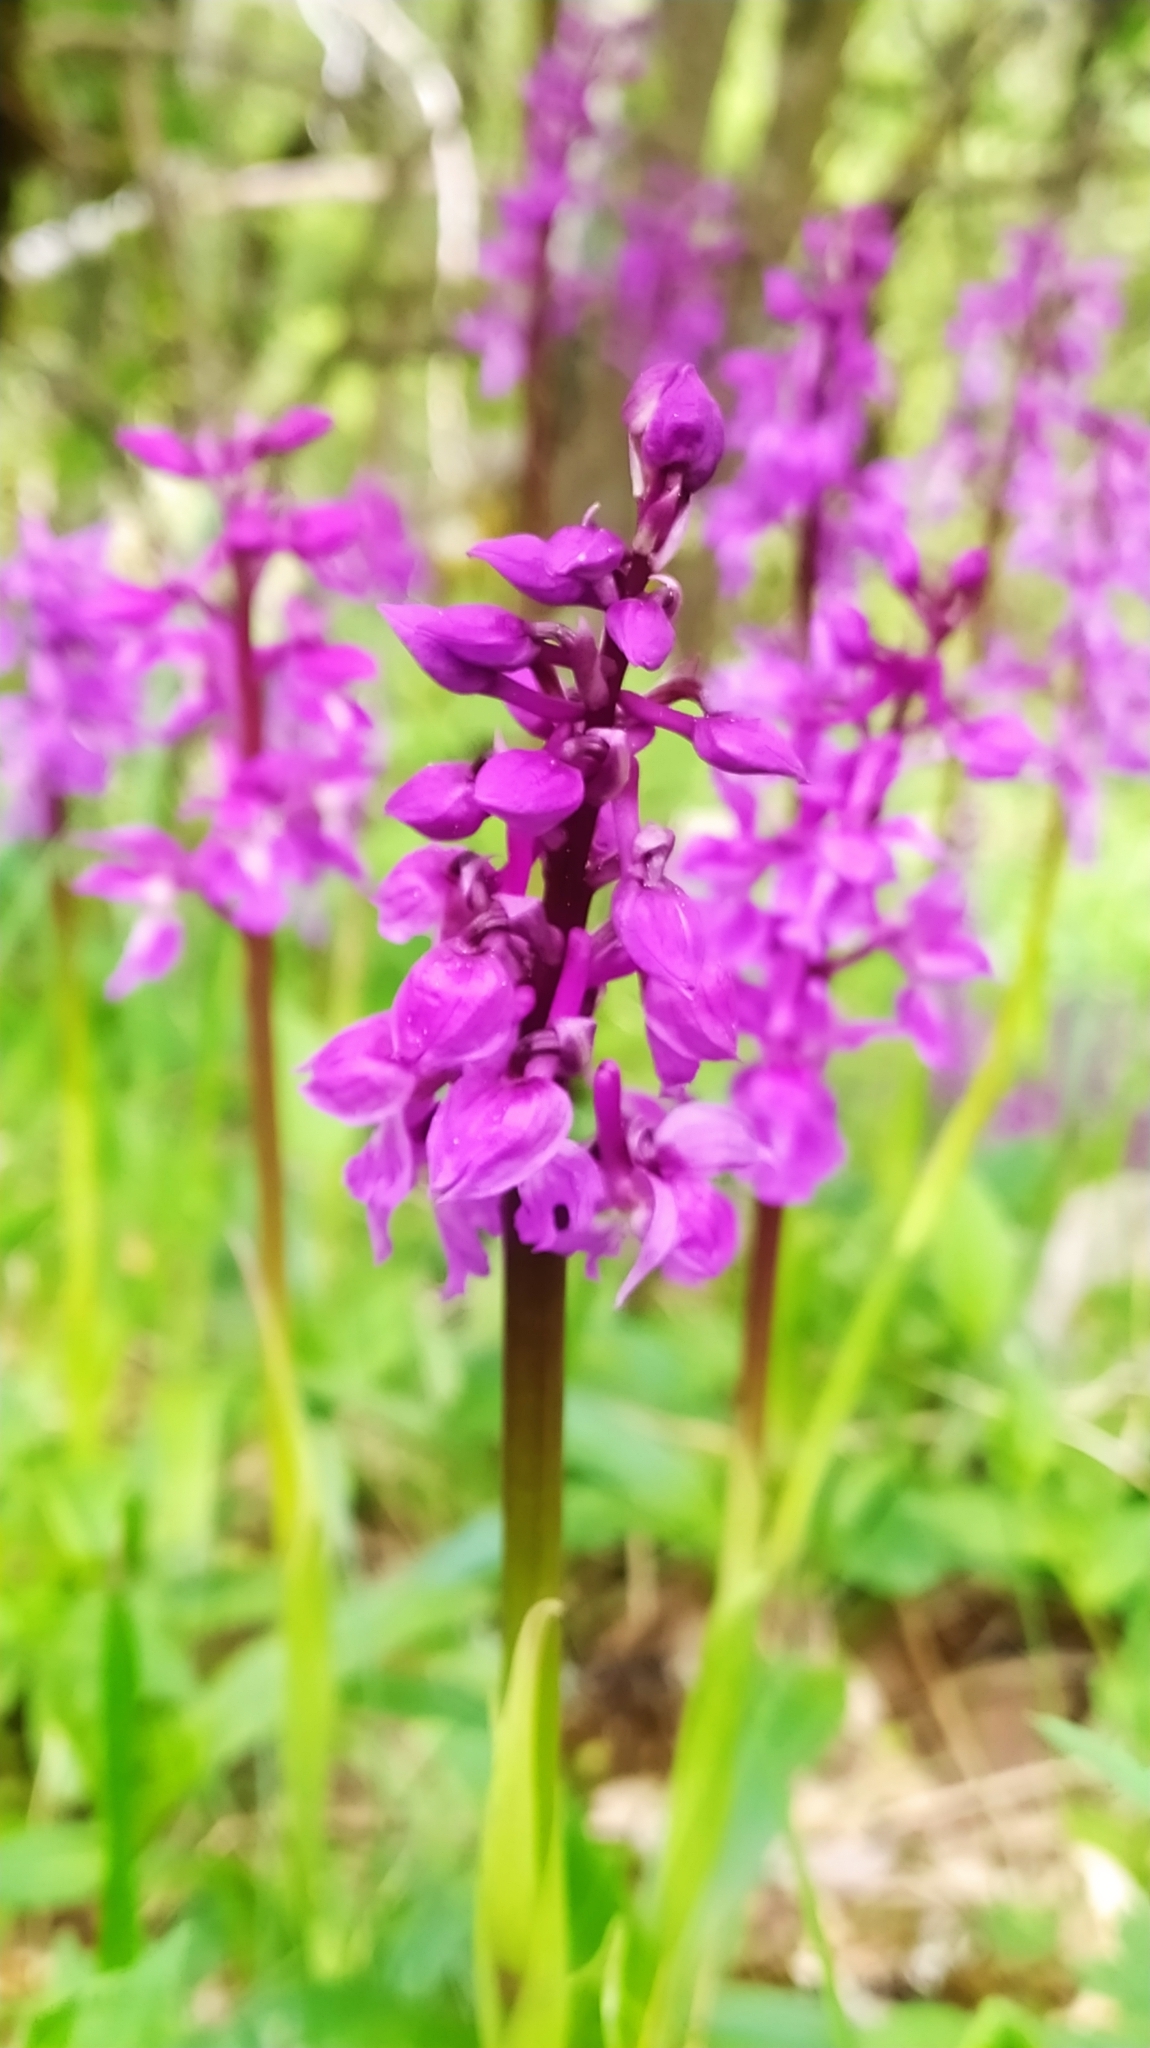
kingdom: Plantae
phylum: Tracheophyta
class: Liliopsida
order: Asparagales
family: Orchidaceae
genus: Orchis
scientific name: Orchis mascula
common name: Early-purple orchid
